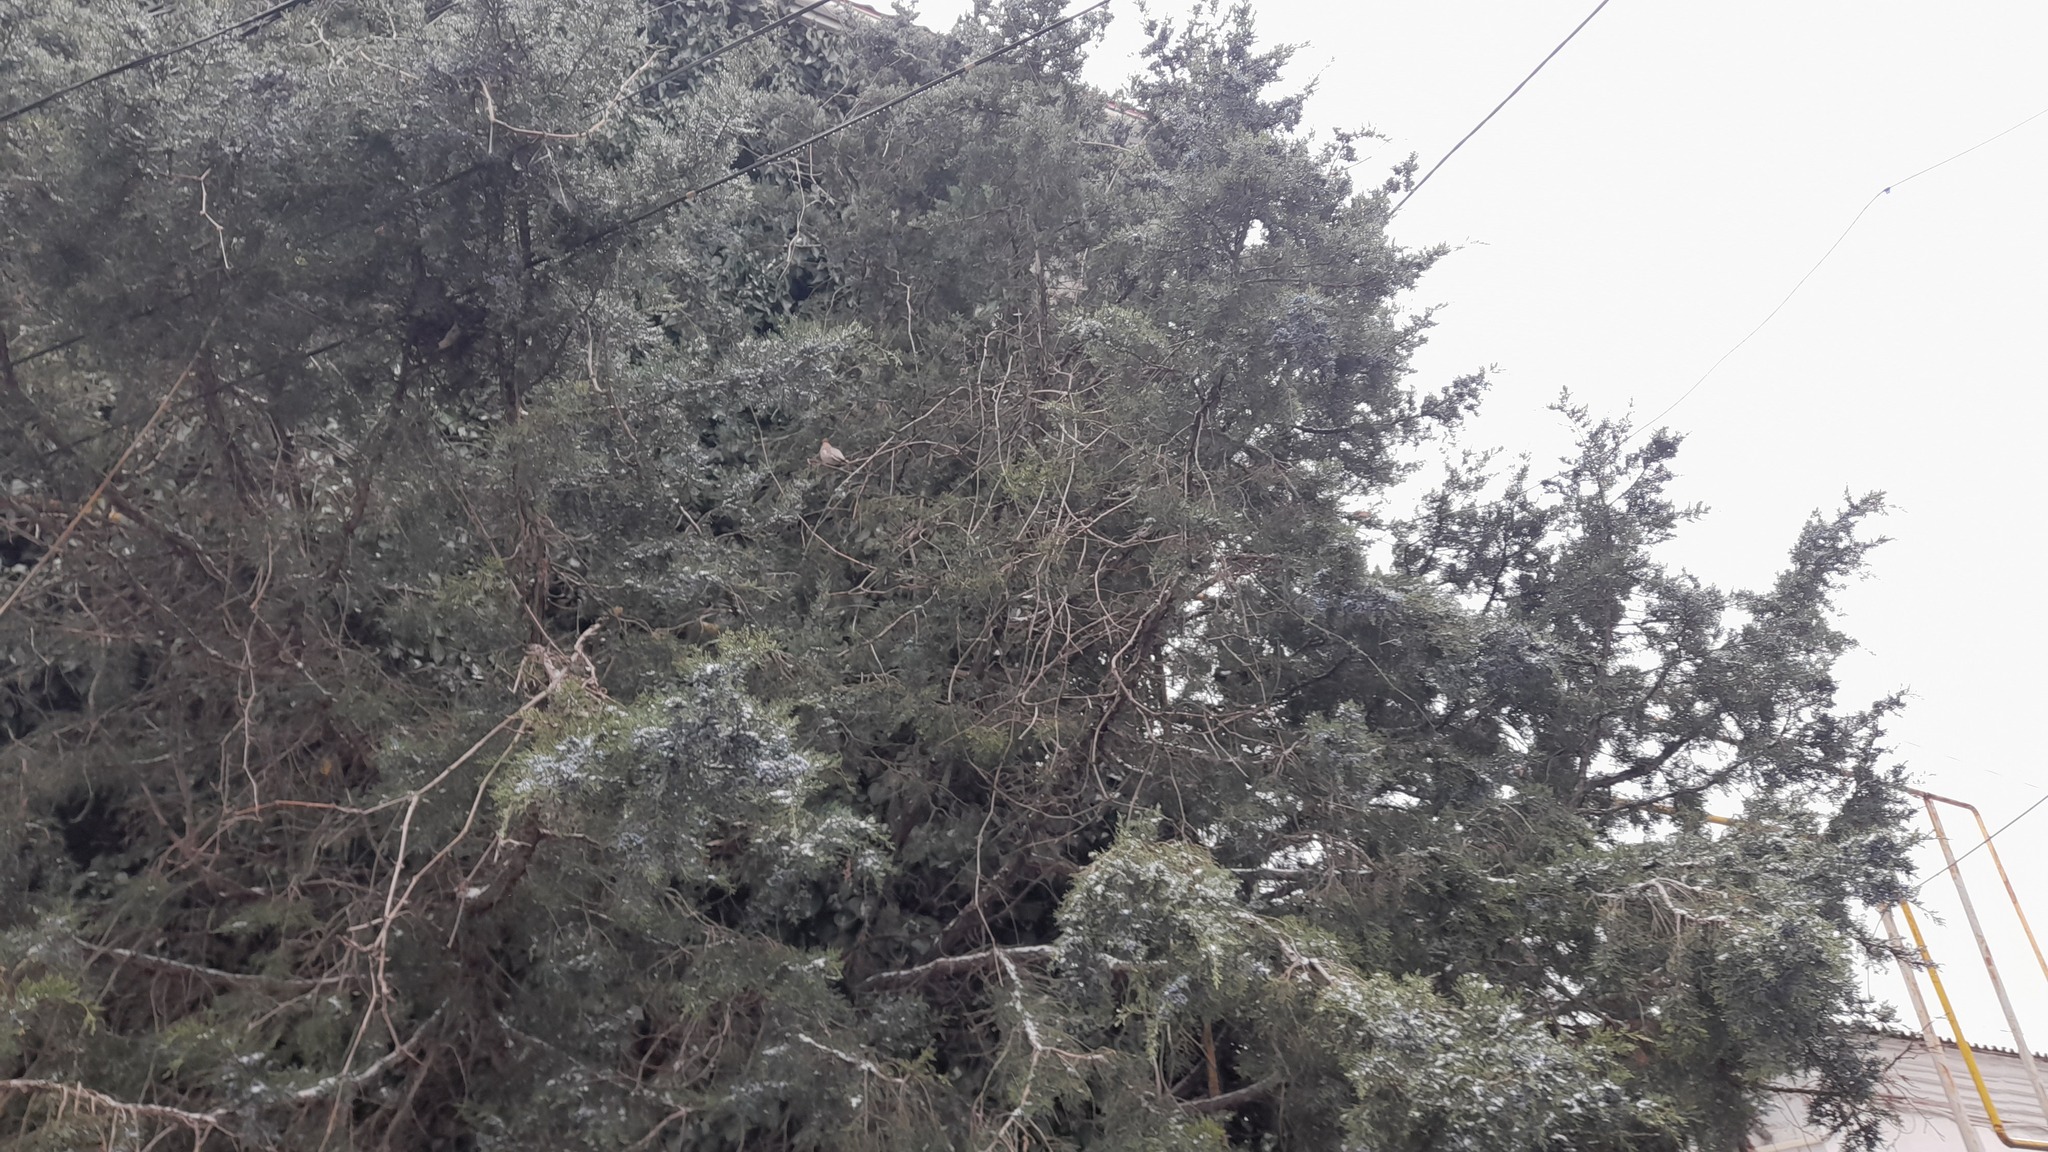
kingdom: Animalia
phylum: Chordata
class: Aves
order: Passeriformes
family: Bombycillidae
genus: Bombycilla
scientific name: Bombycilla garrulus
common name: Bohemian waxwing
